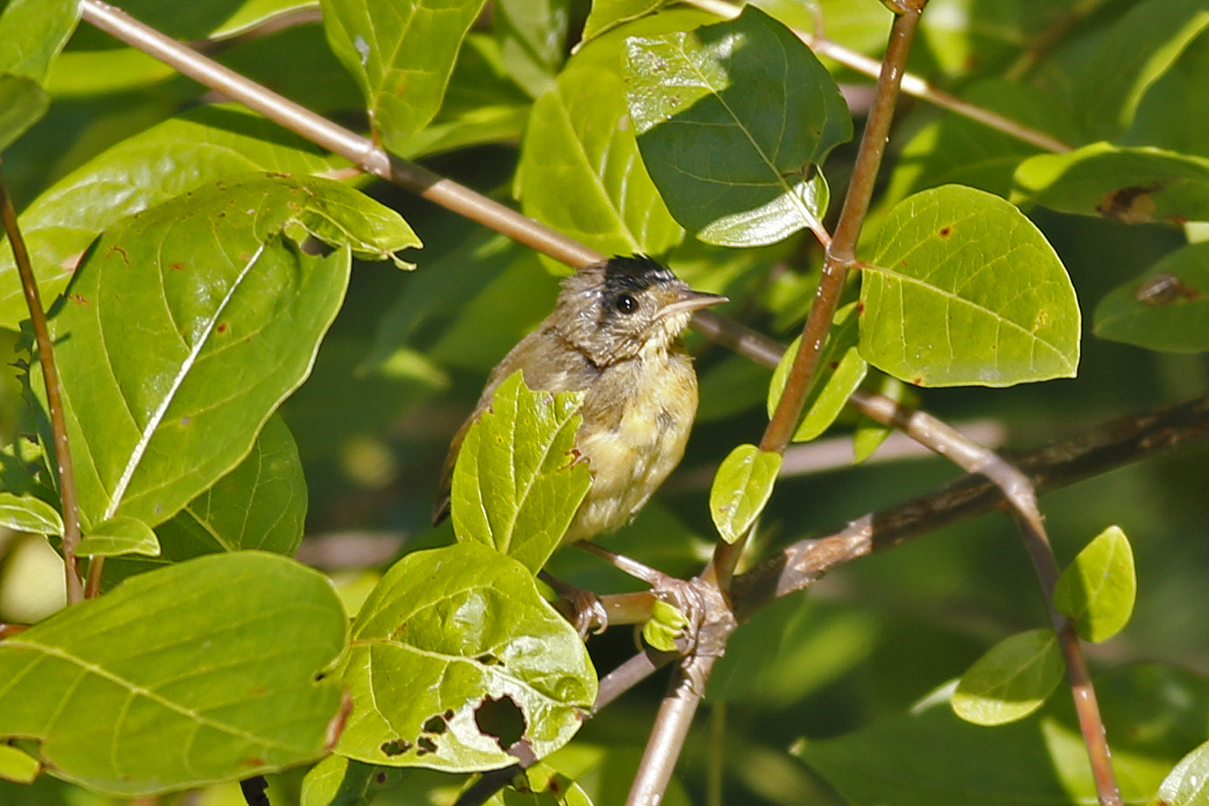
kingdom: Animalia
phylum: Chordata
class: Aves
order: Passeriformes
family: Parulidae
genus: Geothlypis
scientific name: Geothlypis trichas
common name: Common yellowthroat
